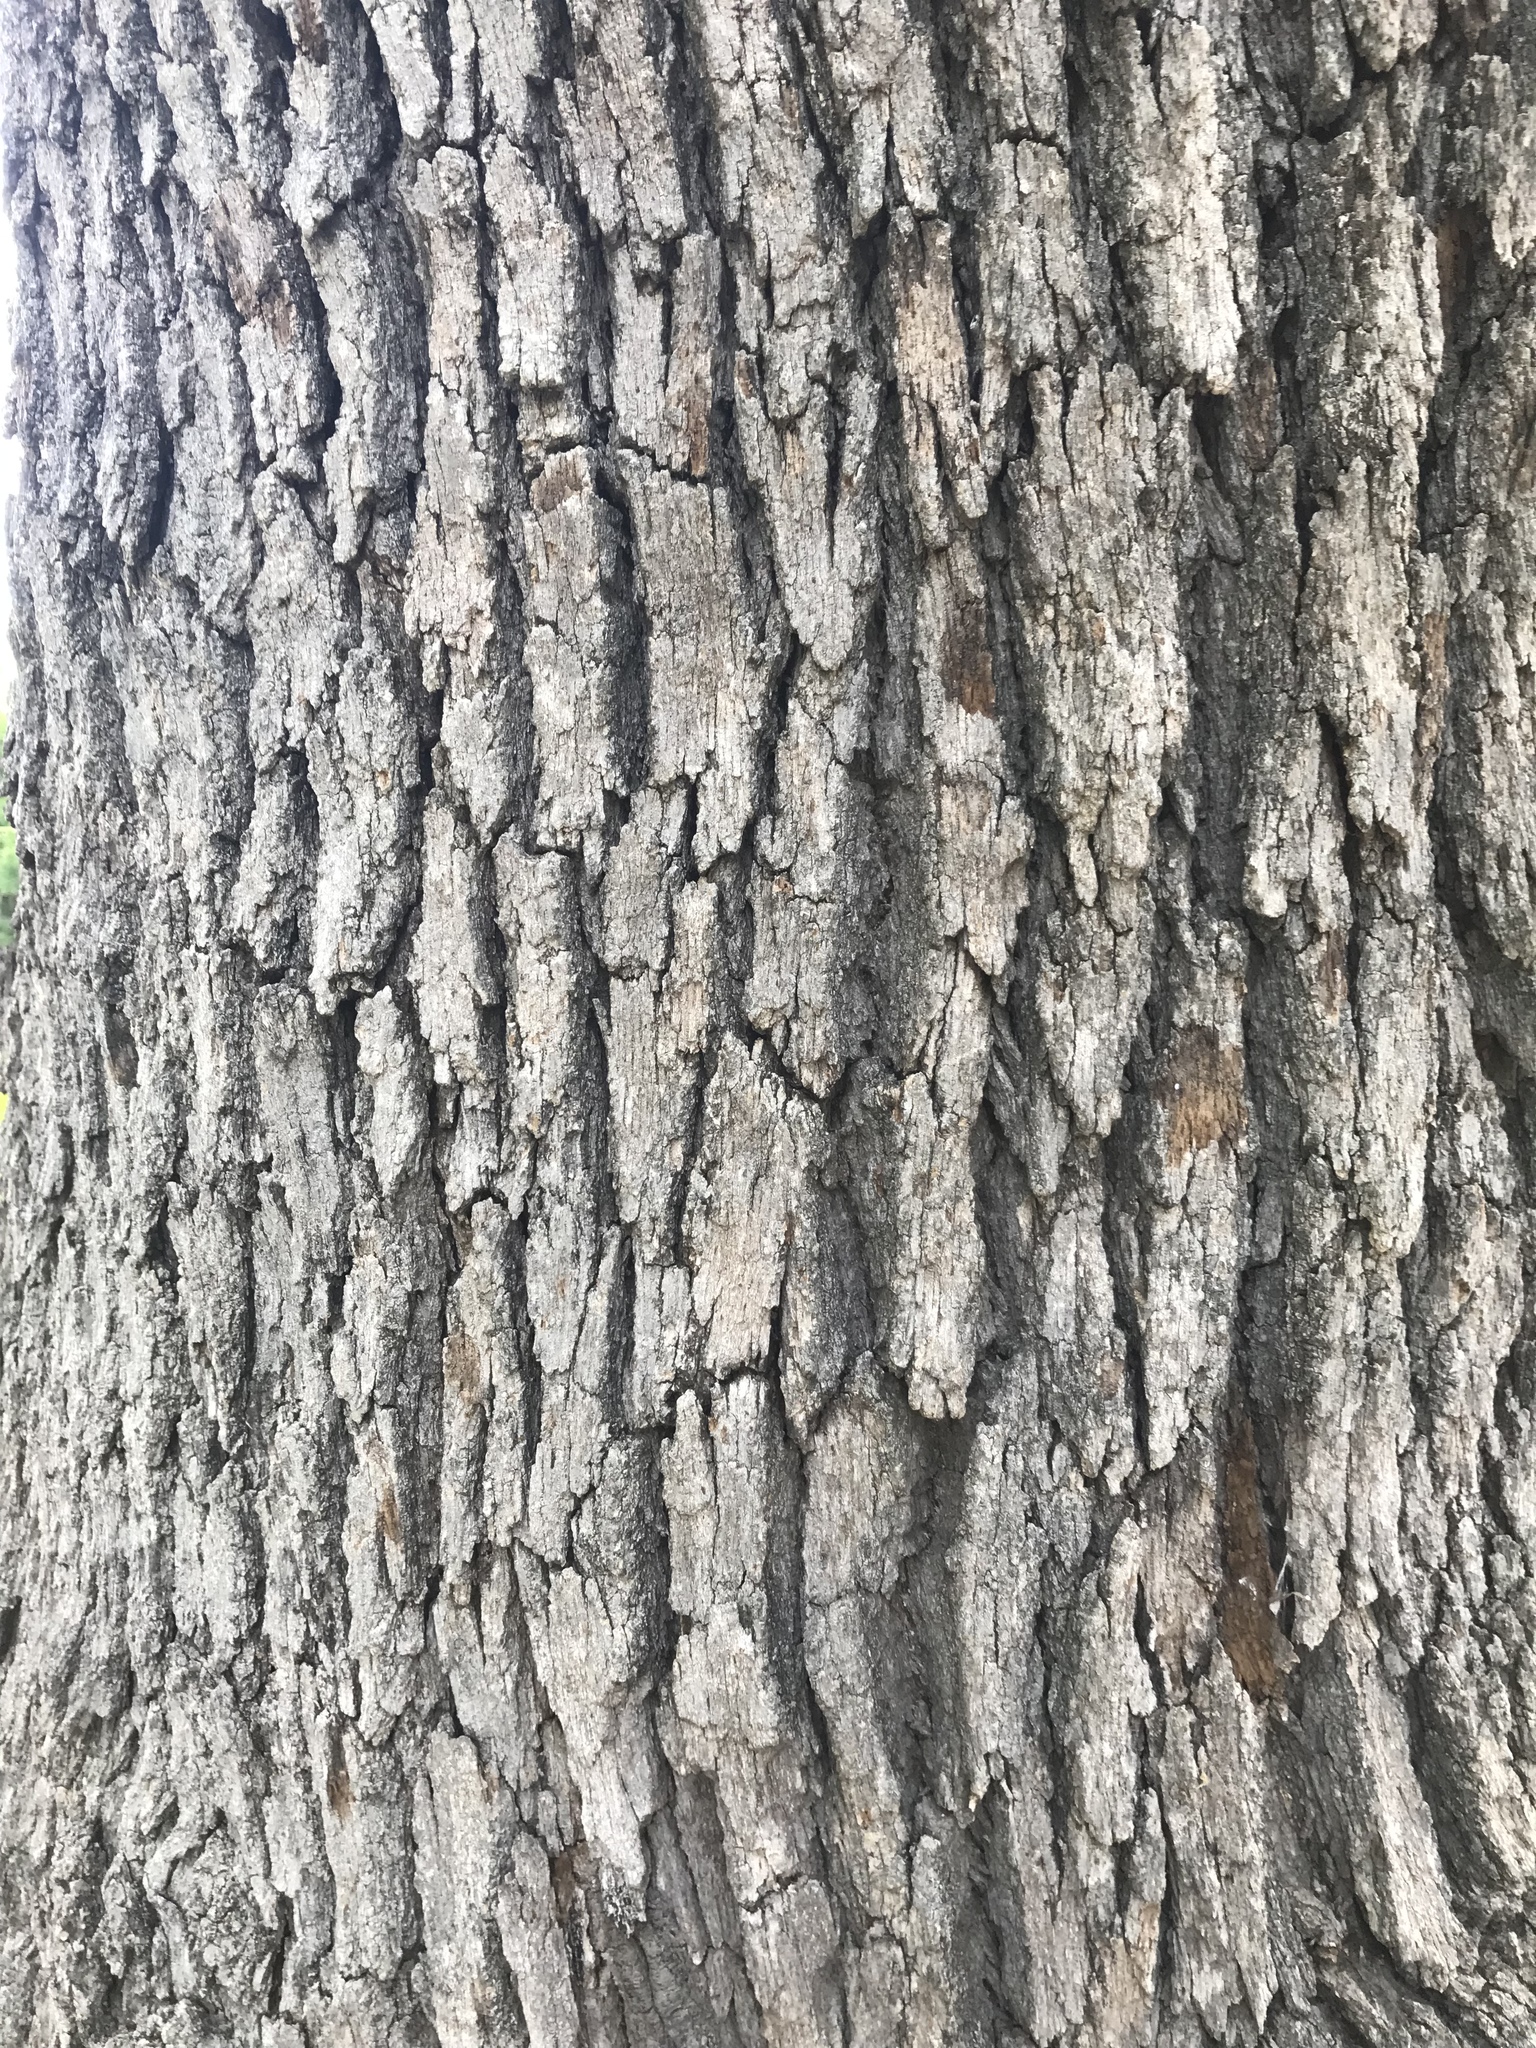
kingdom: Plantae
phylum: Tracheophyta
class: Magnoliopsida
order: Fagales
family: Fagaceae
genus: Quercus
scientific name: Quercus stellata
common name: Post oak
